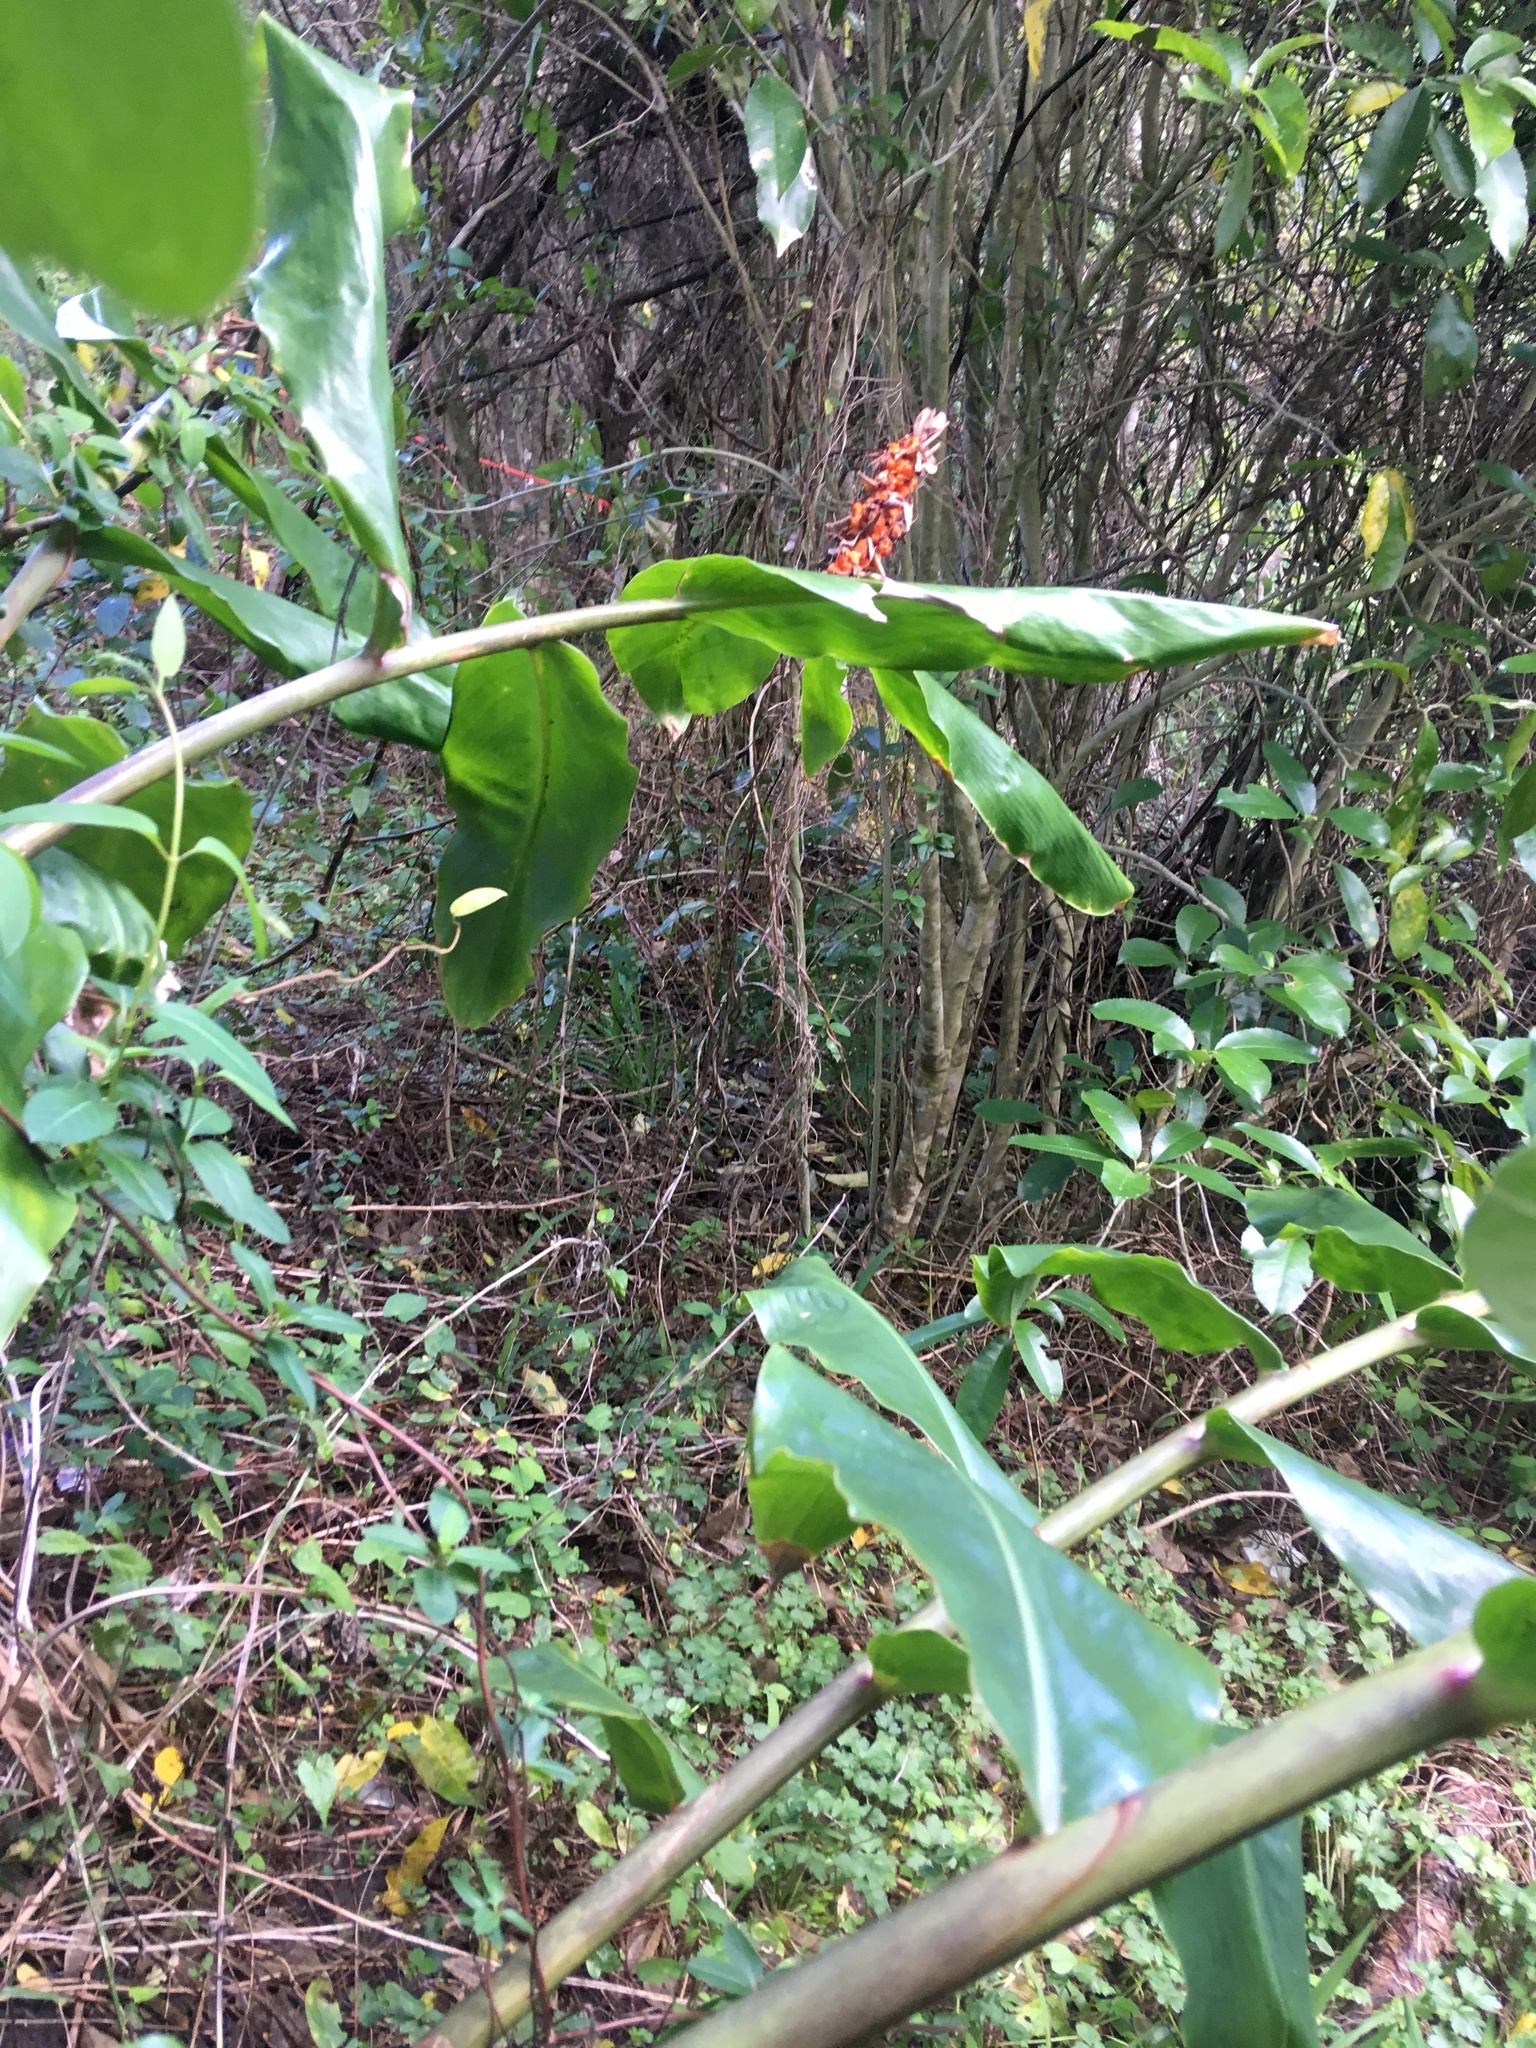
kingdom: Plantae
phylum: Tracheophyta
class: Magnoliopsida
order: Ranunculales
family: Ranunculaceae
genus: Ranunculus
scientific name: Ranunculus repens
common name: Creeping buttercup
